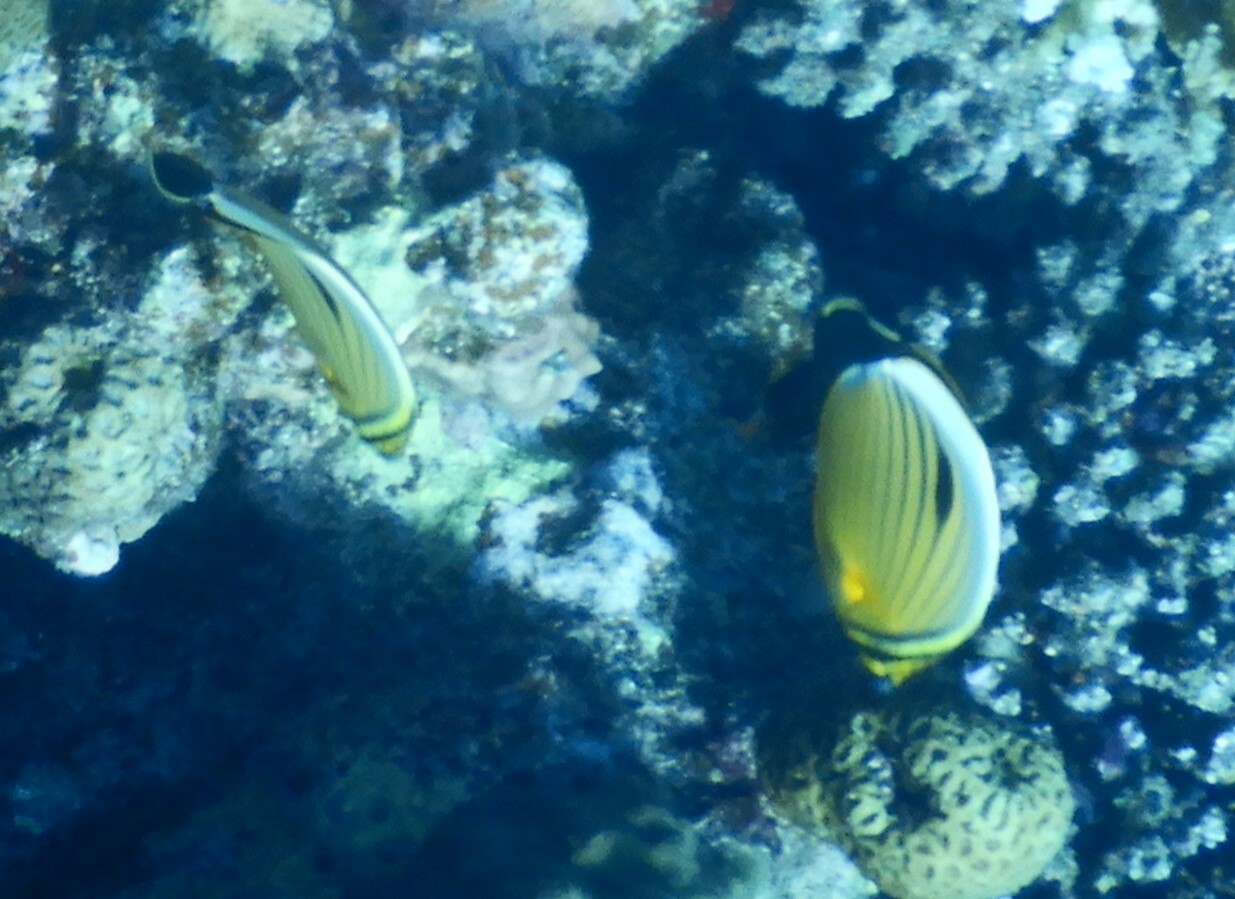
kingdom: Animalia
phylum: Chordata
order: Perciformes
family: Chaetodontidae
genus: Chaetodon
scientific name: Chaetodon austriacus
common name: Exquisite butterflyfish
